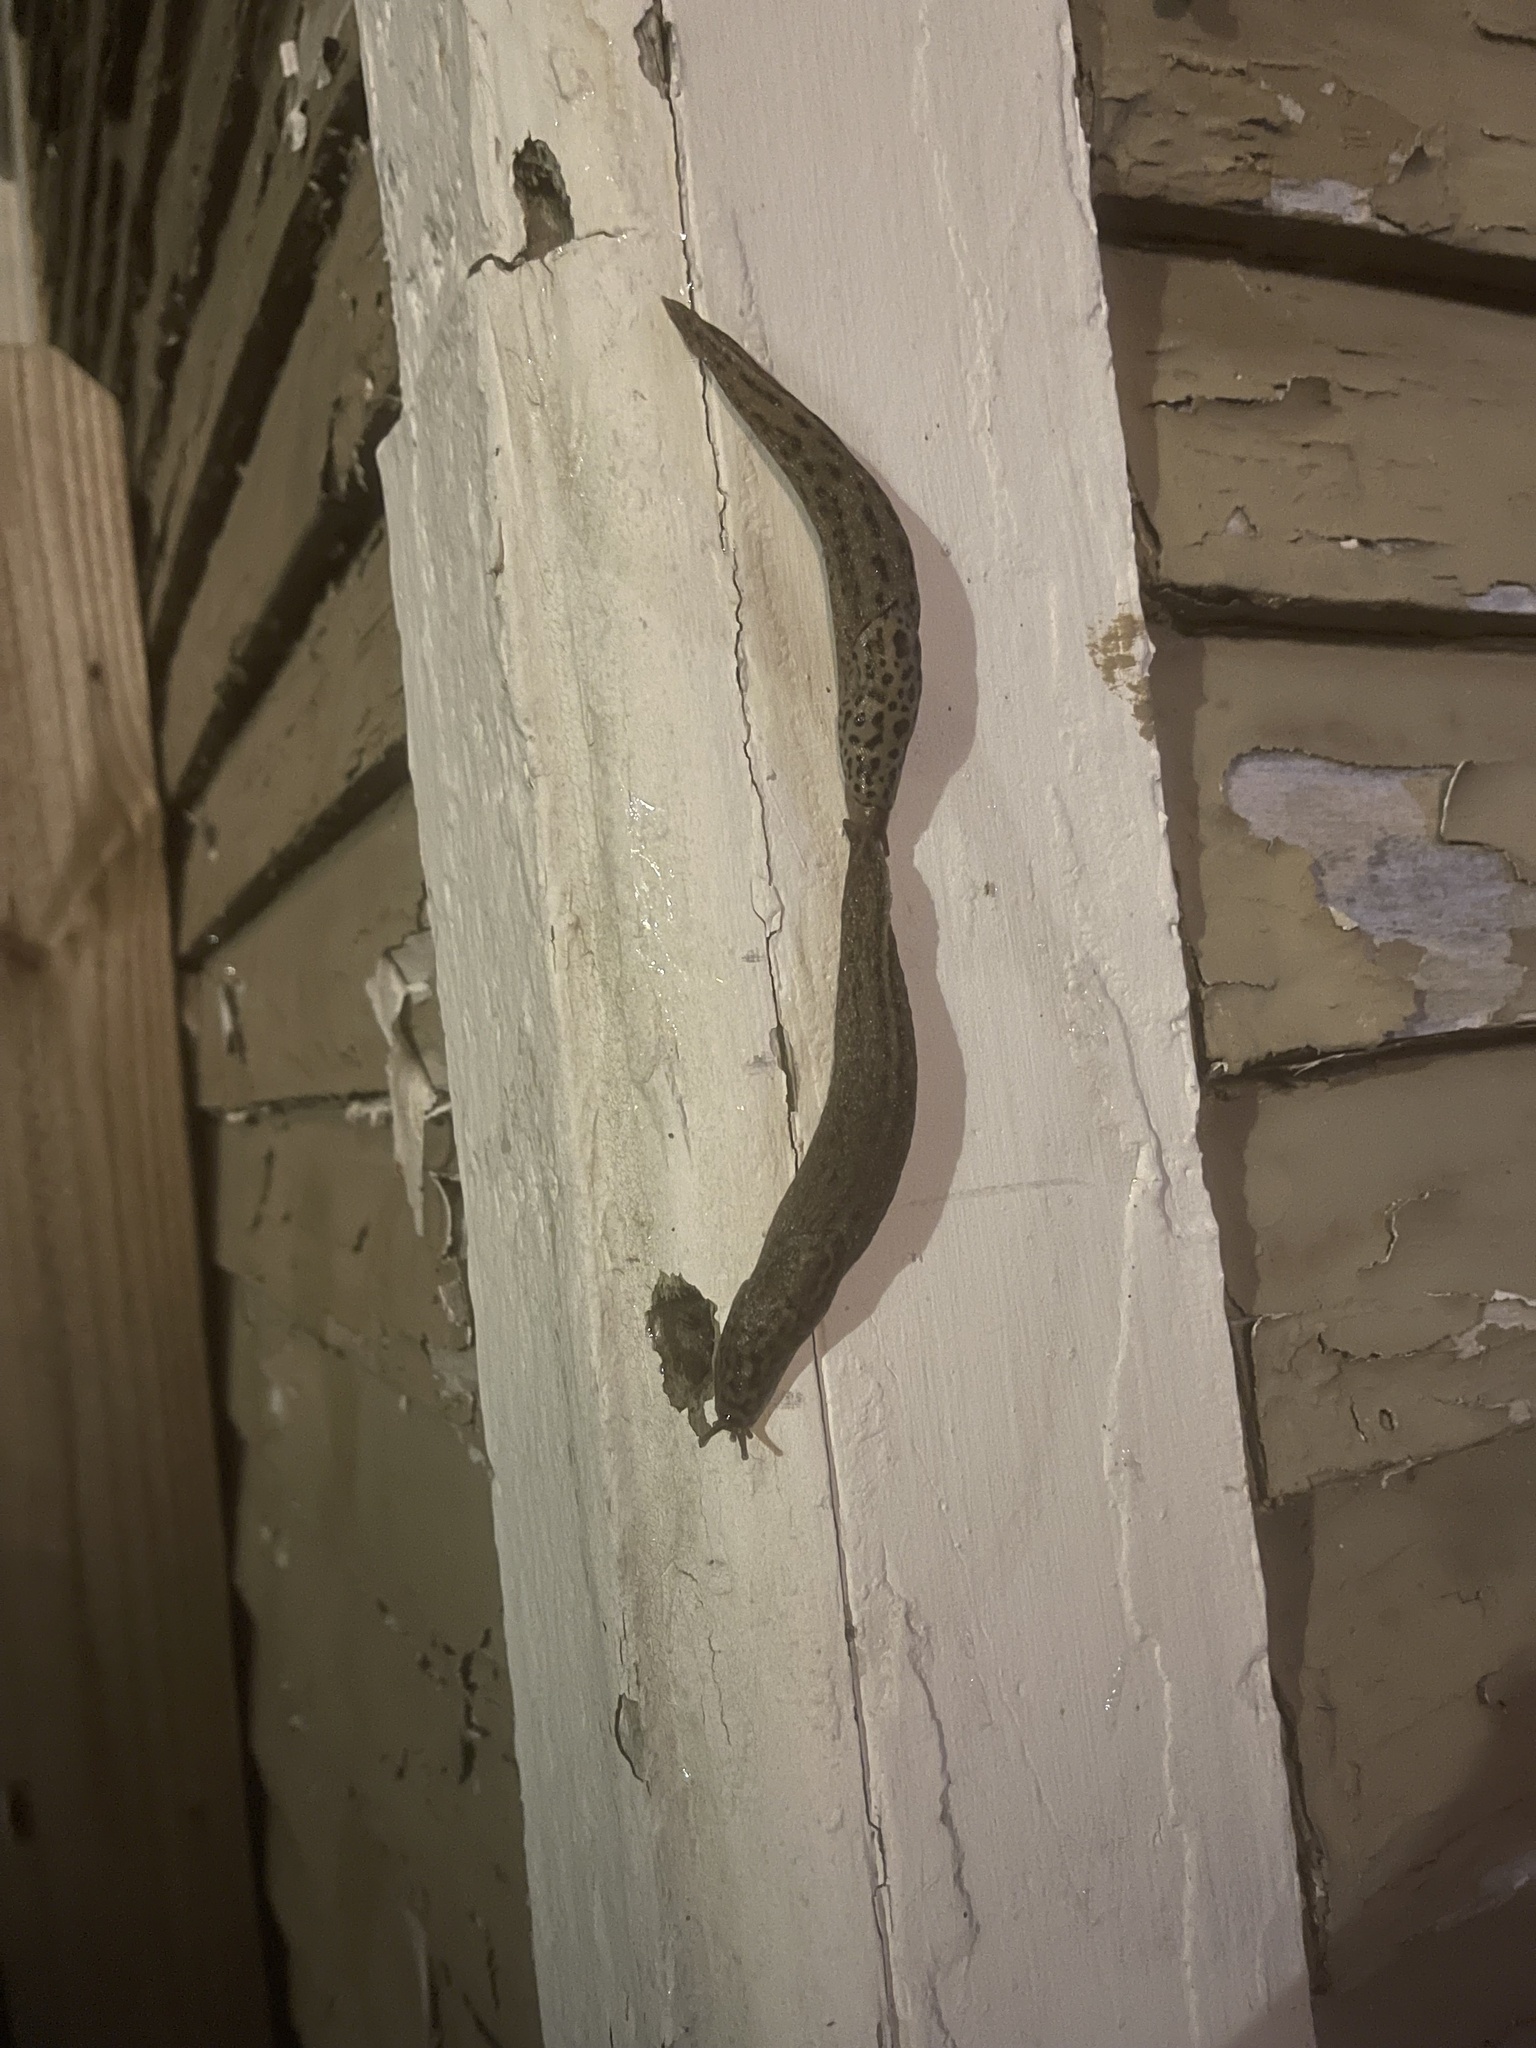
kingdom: Animalia
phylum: Mollusca
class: Gastropoda
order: Stylommatophora
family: Limacidae
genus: Limax
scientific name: Limax maximus
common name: Great grey slug
